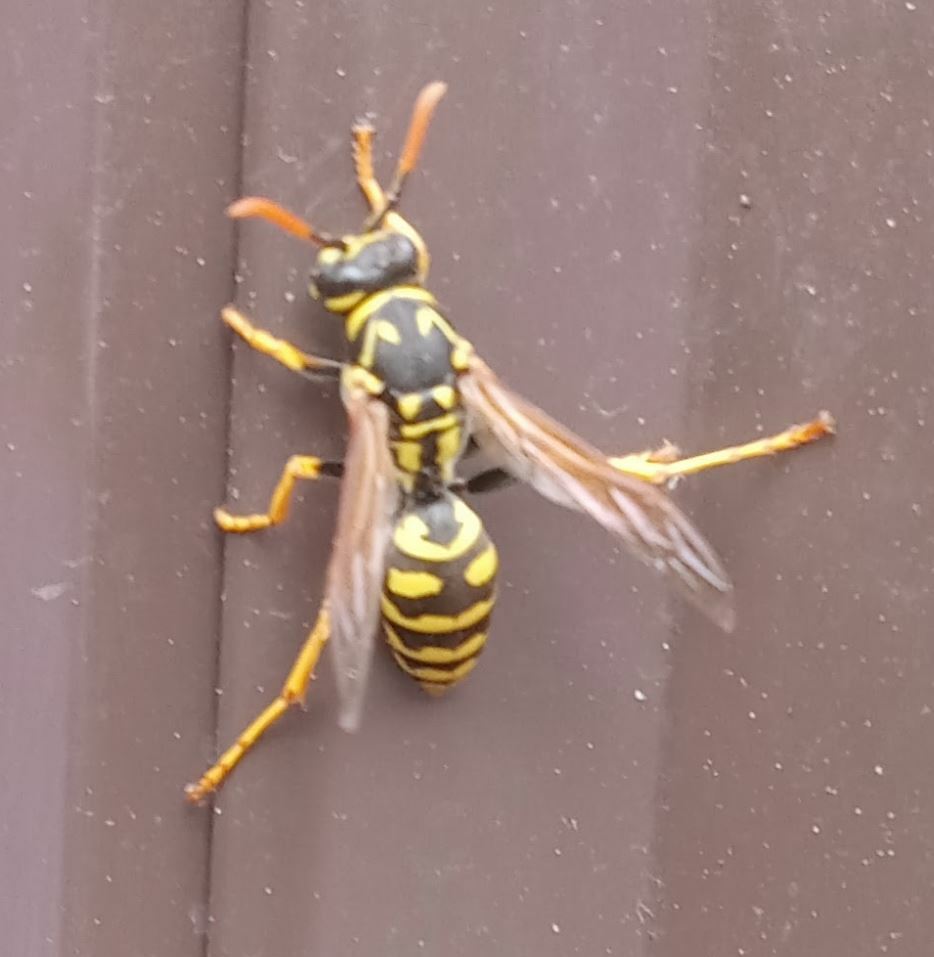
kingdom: Animalia
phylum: Arthropoda
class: Insecta
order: Hymenoptera
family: Eumenidae
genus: Polistes
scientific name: Polistes dominula
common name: Paper wasp
